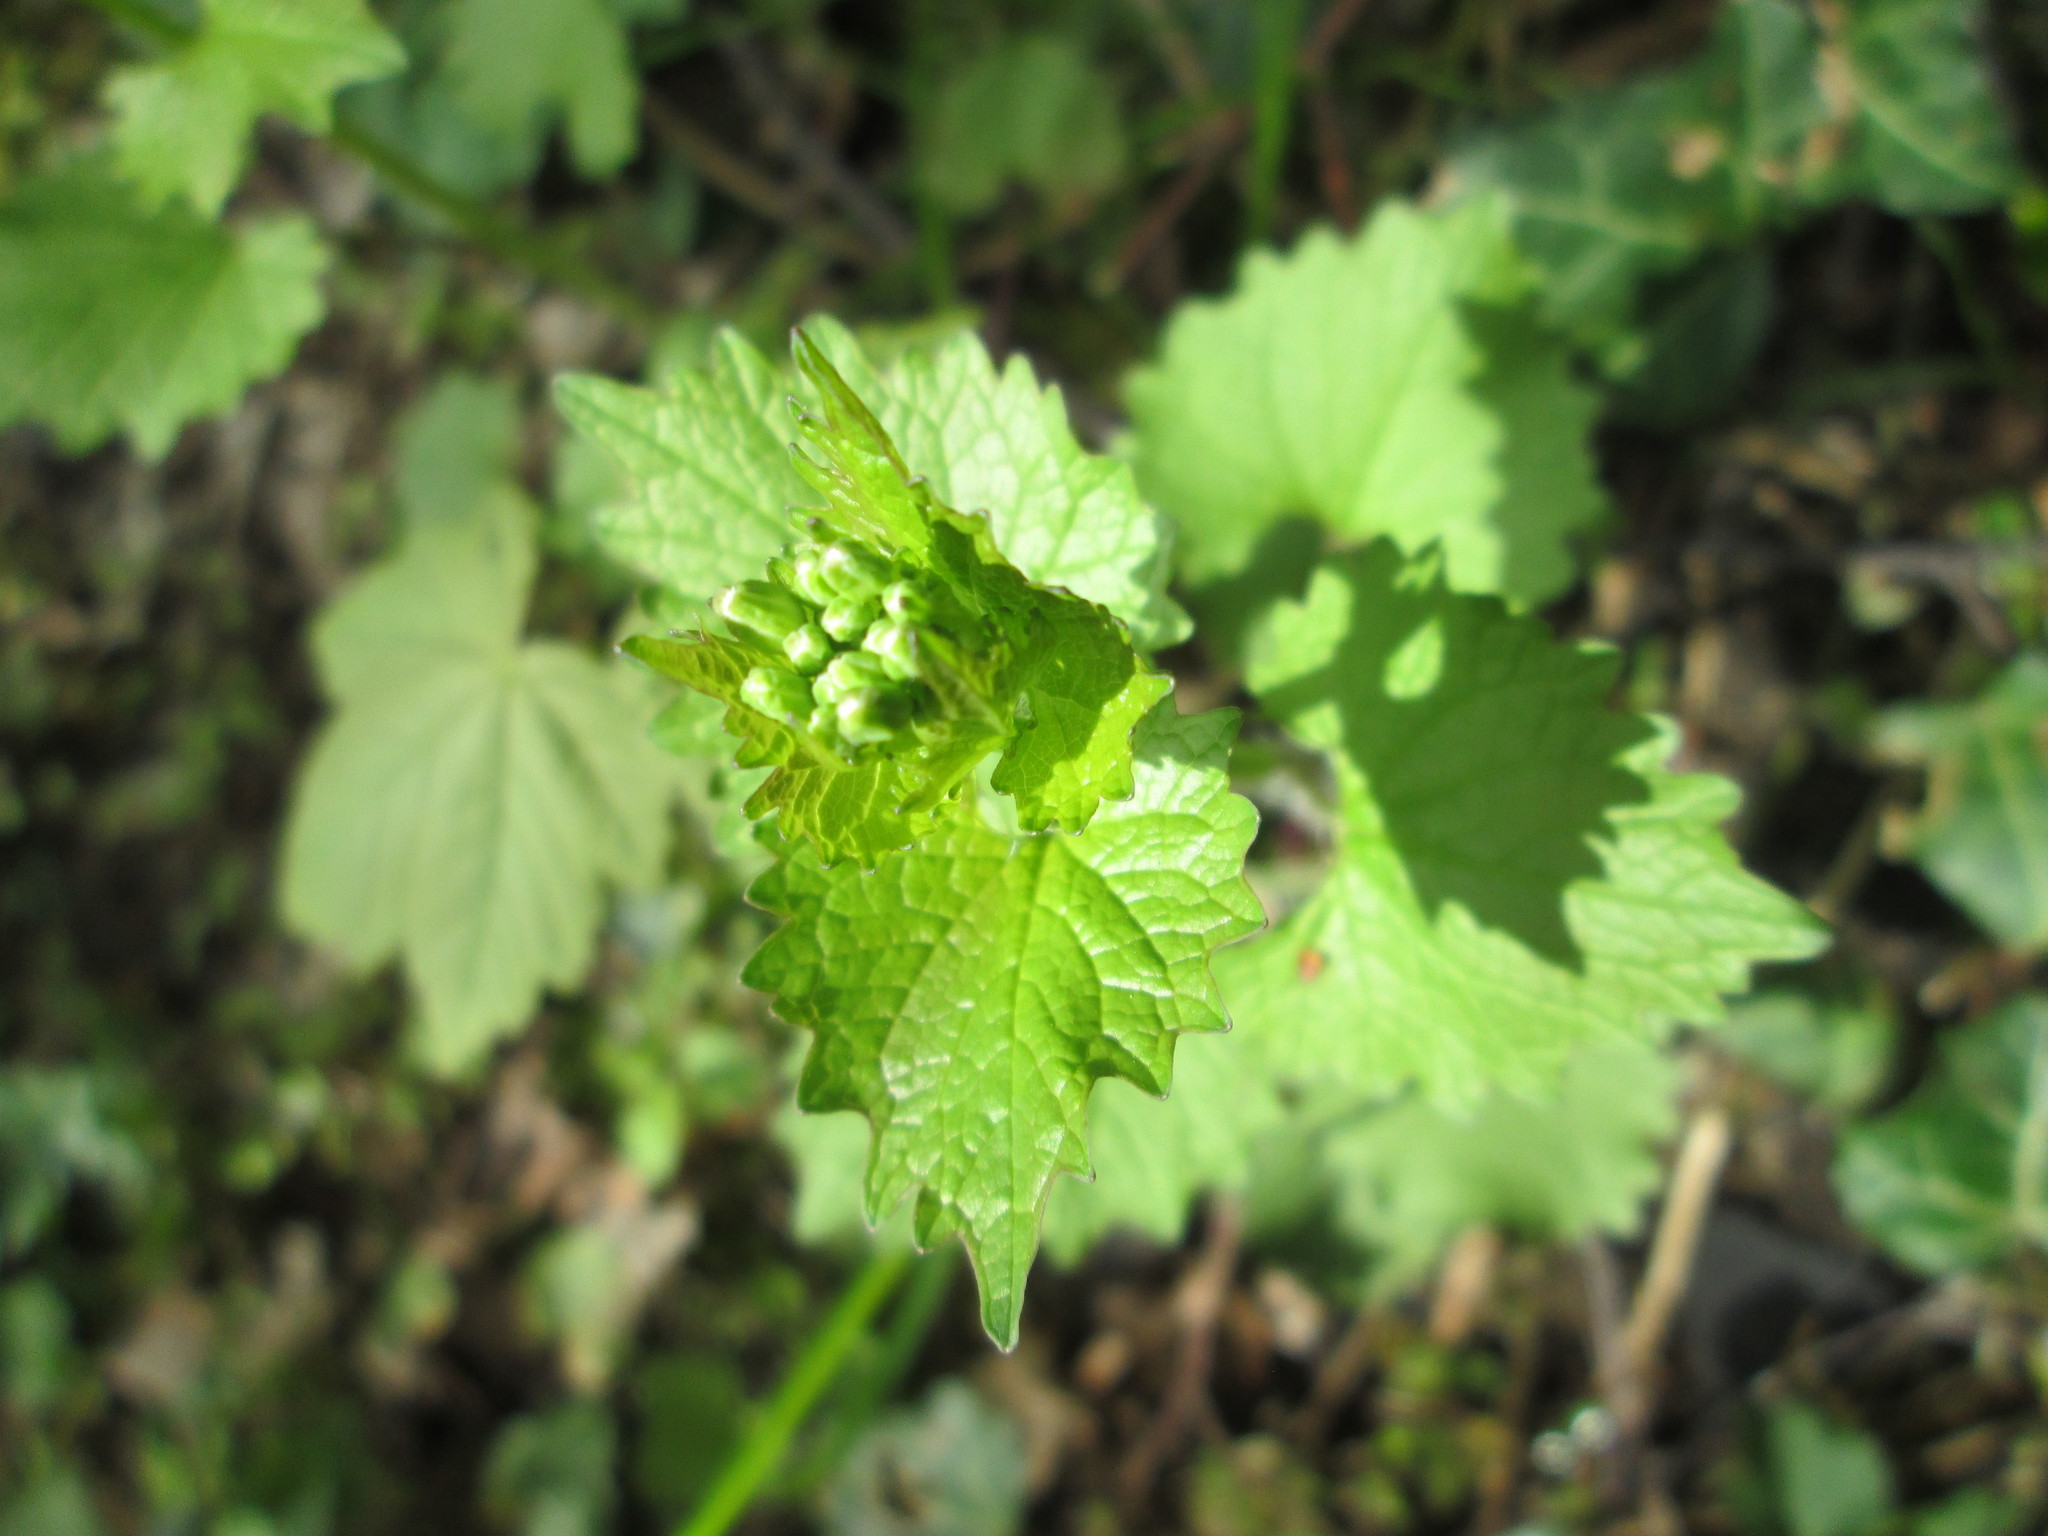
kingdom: Plantae
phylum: Tracheophyta
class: Magnoliopsida
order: Brassicales
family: Brassicaceae
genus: Alliaria
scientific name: Alliaria petiolata
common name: Garlic mustard
